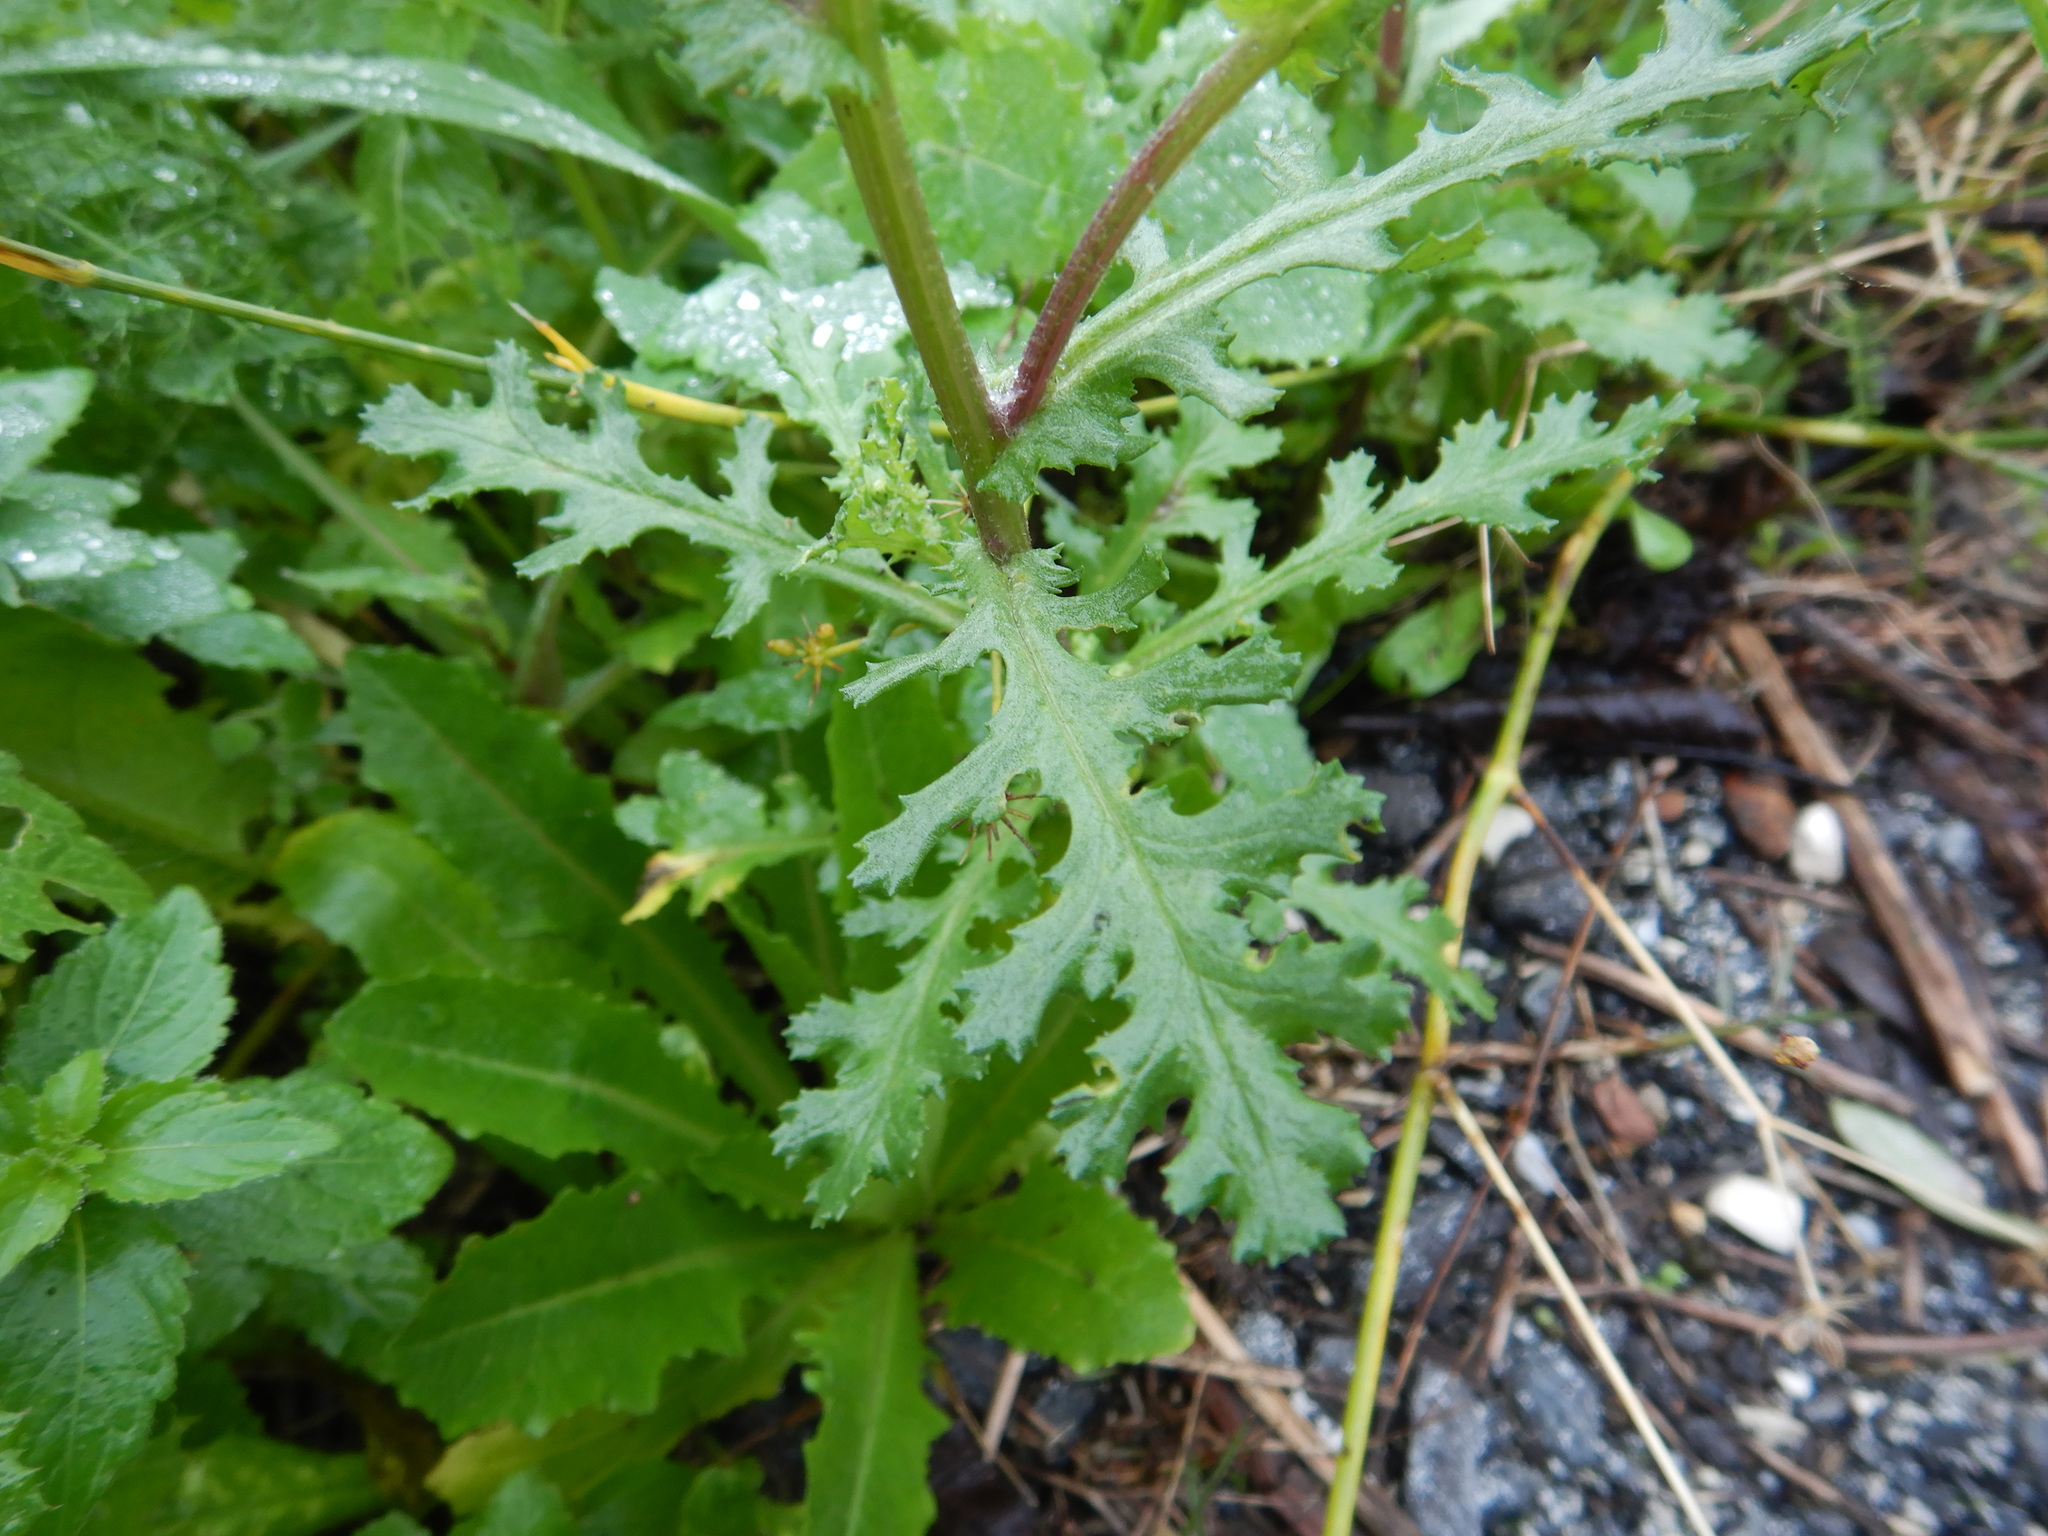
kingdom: Plantae
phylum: Tracheophyta
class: Magnoliopsida
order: Asterales
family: Asteraceae
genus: Senecio
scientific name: Senecio vulgaris
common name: Old-man-in-the-spring
